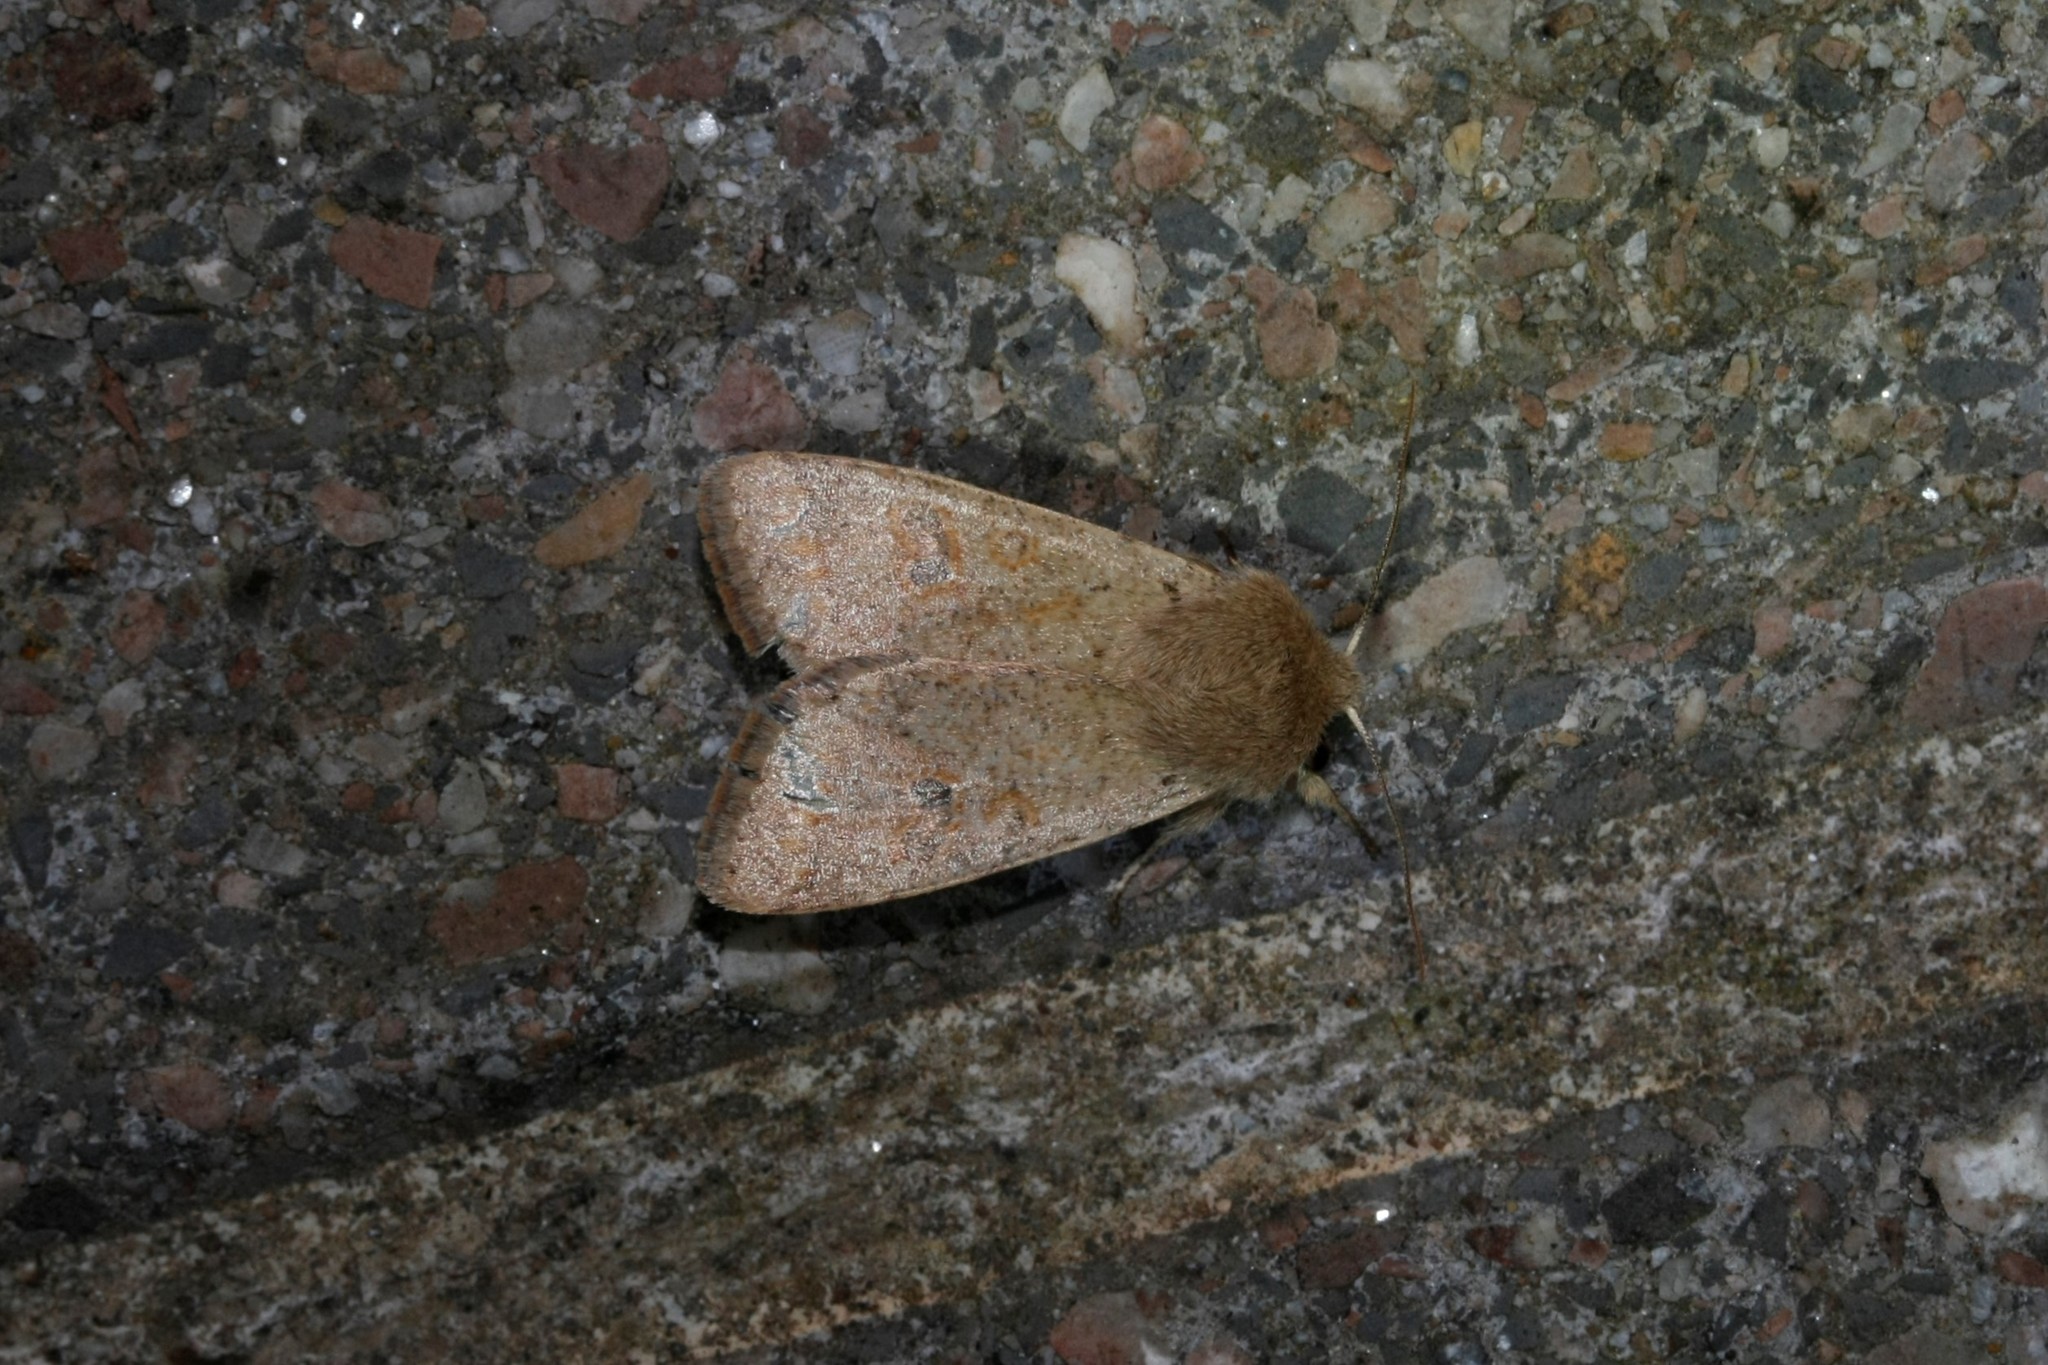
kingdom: Animalia
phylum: Arthropoda
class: Insecta
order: Lepidoptera
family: Noctuidae
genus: Orthosia
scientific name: Orthosia cruda
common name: Small quaker
